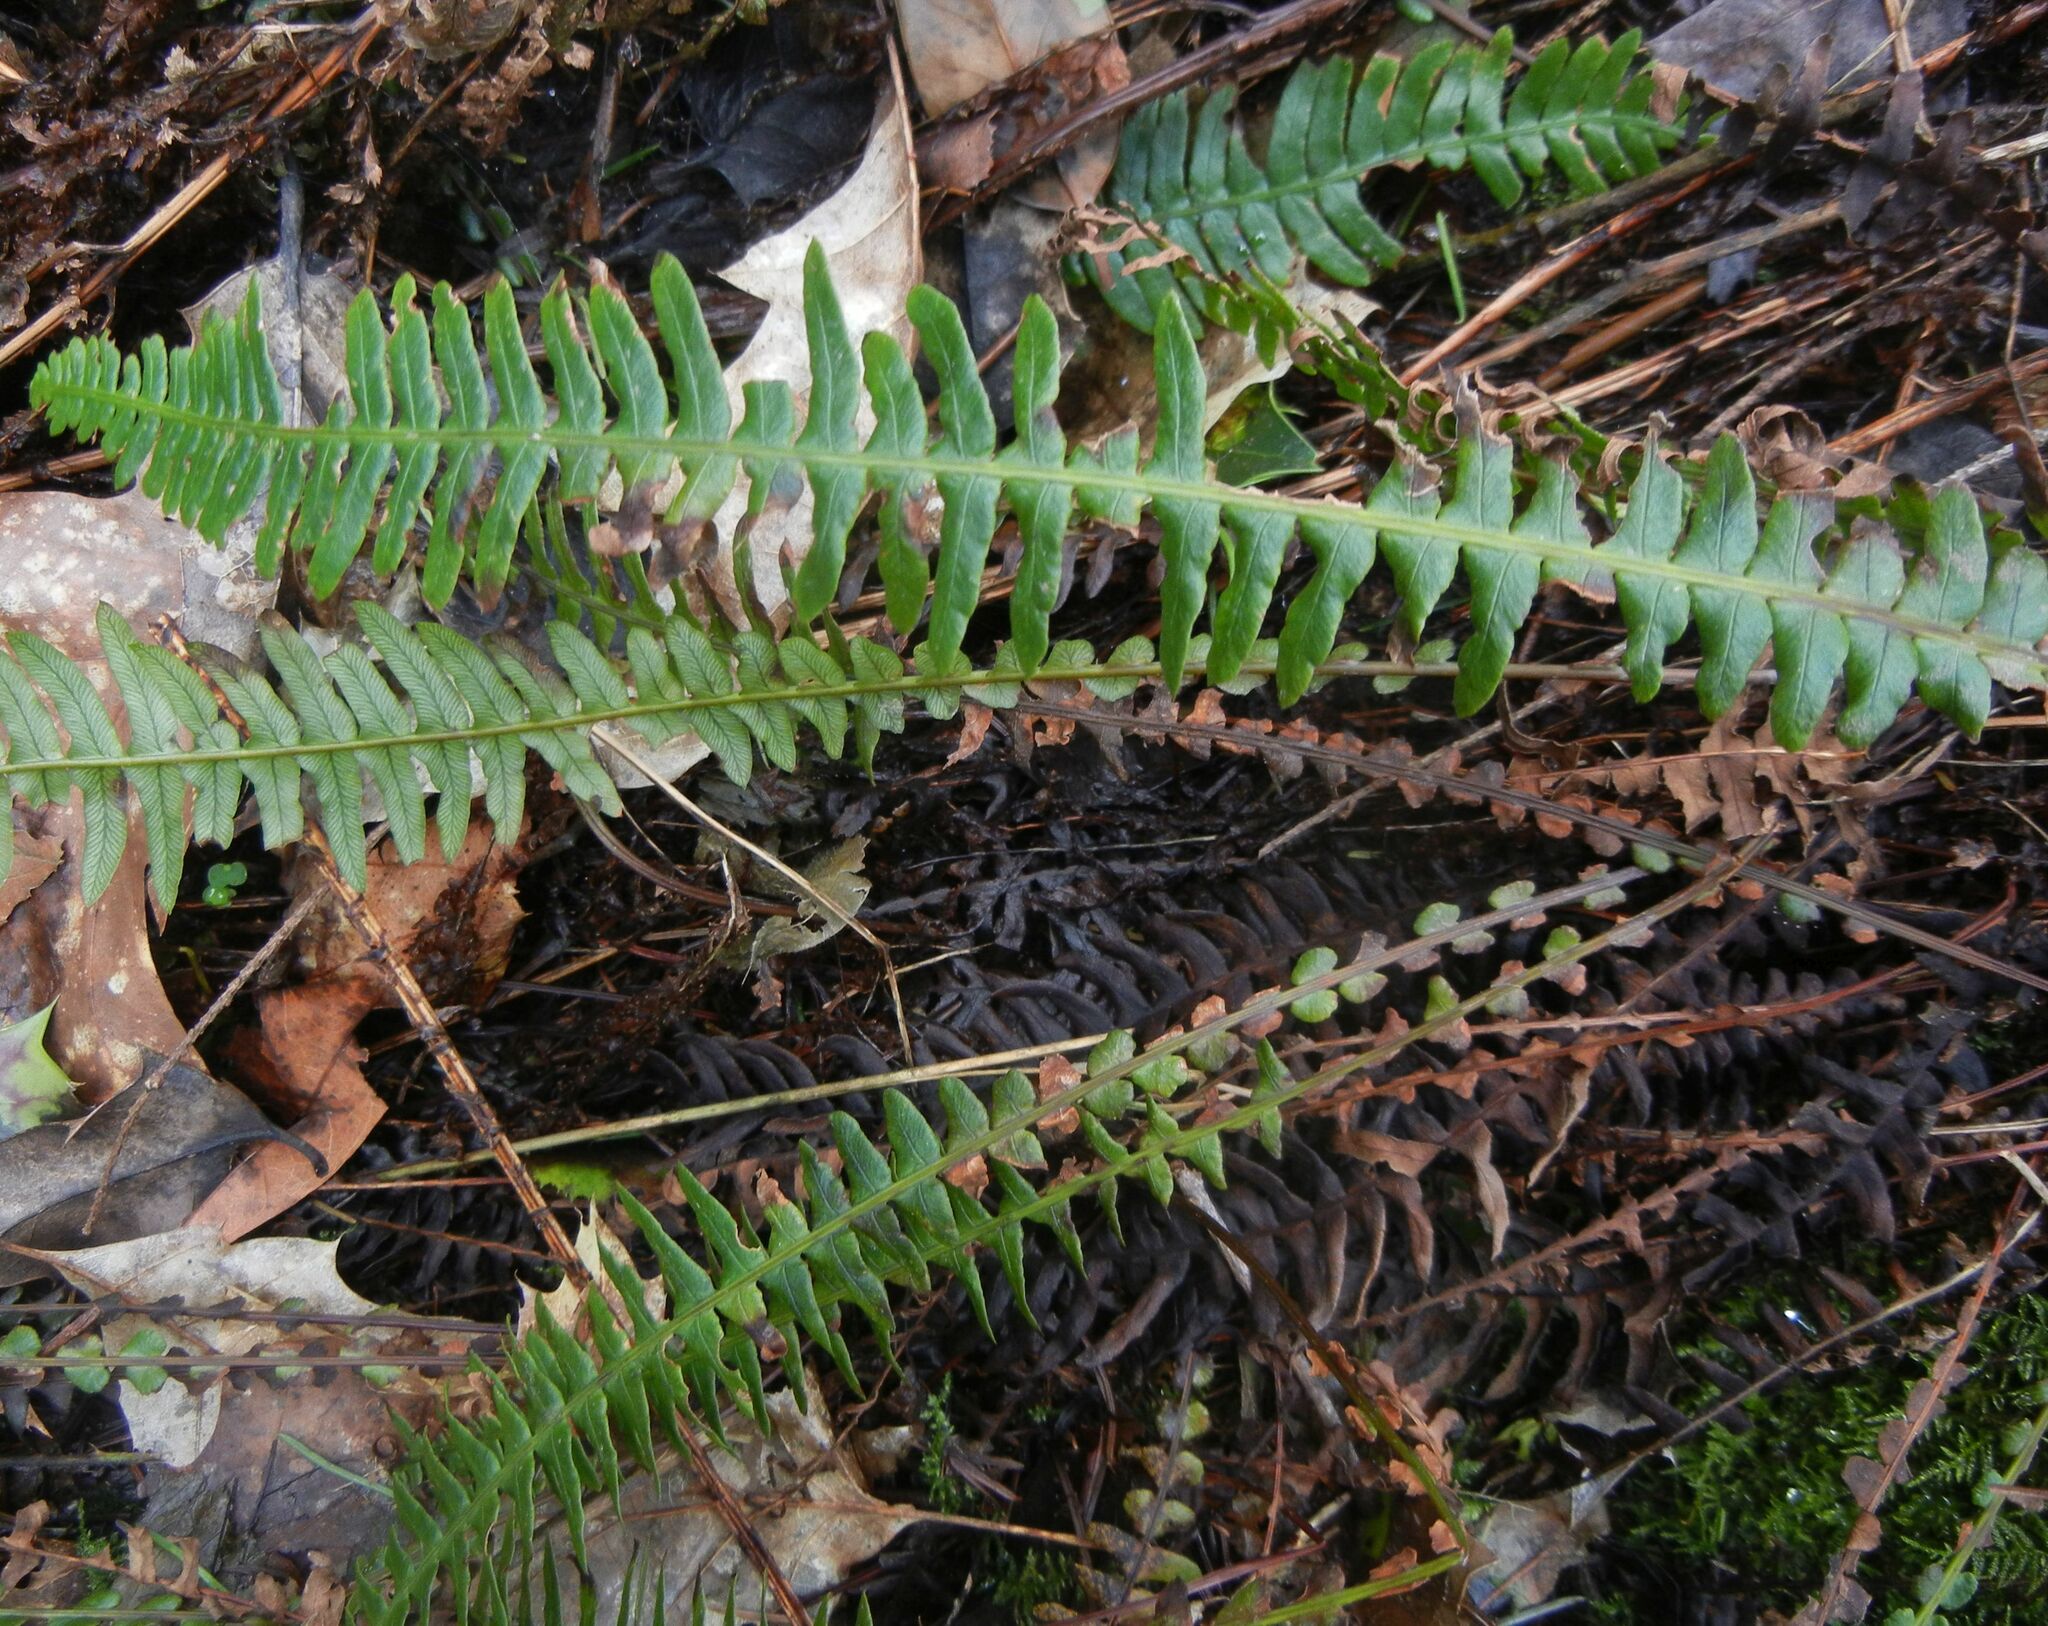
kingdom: Plantae
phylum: Tracheophyta
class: Polypodiopsida
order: Polypodiales
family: Blechnaceae
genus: Struthiopteris
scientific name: Struthiopteris spicant
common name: Deer fern
